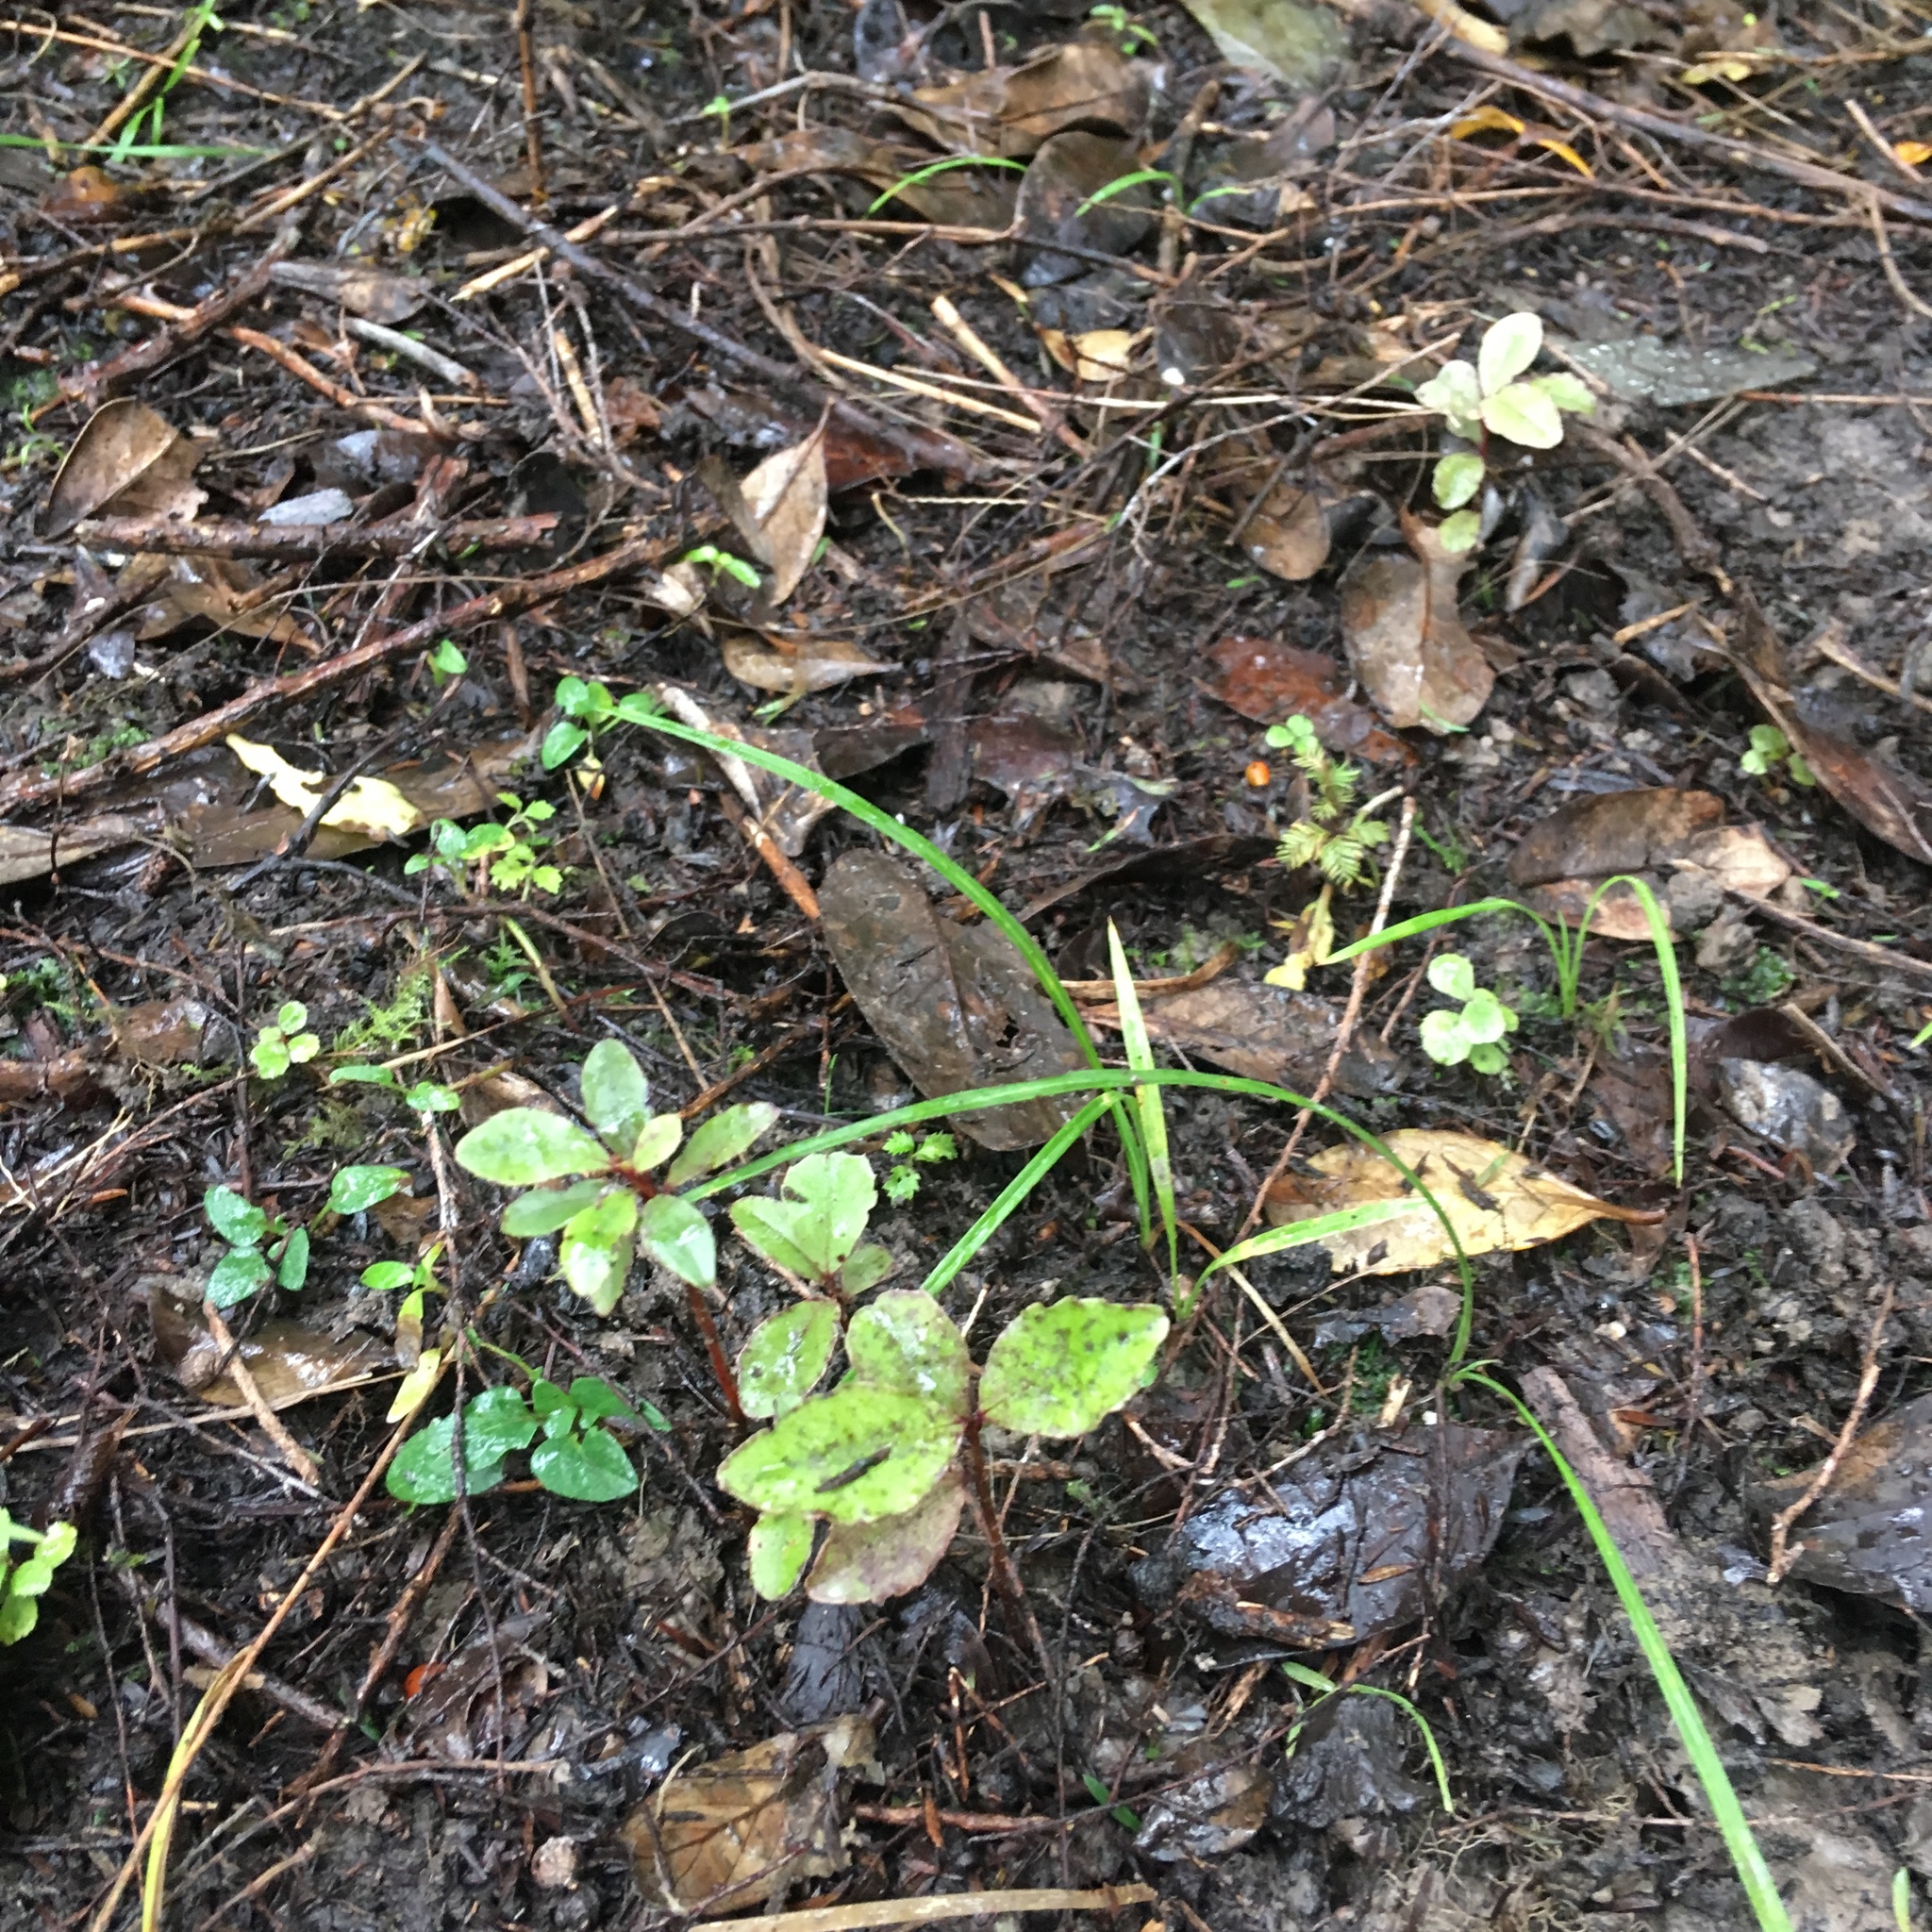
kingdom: Plantae
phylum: Tracheophyta
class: Pinopsida
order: Pinales
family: Podocarpaceae
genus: Dacrycarpus
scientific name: Dacrycarpus dacrydioides
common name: White pine
